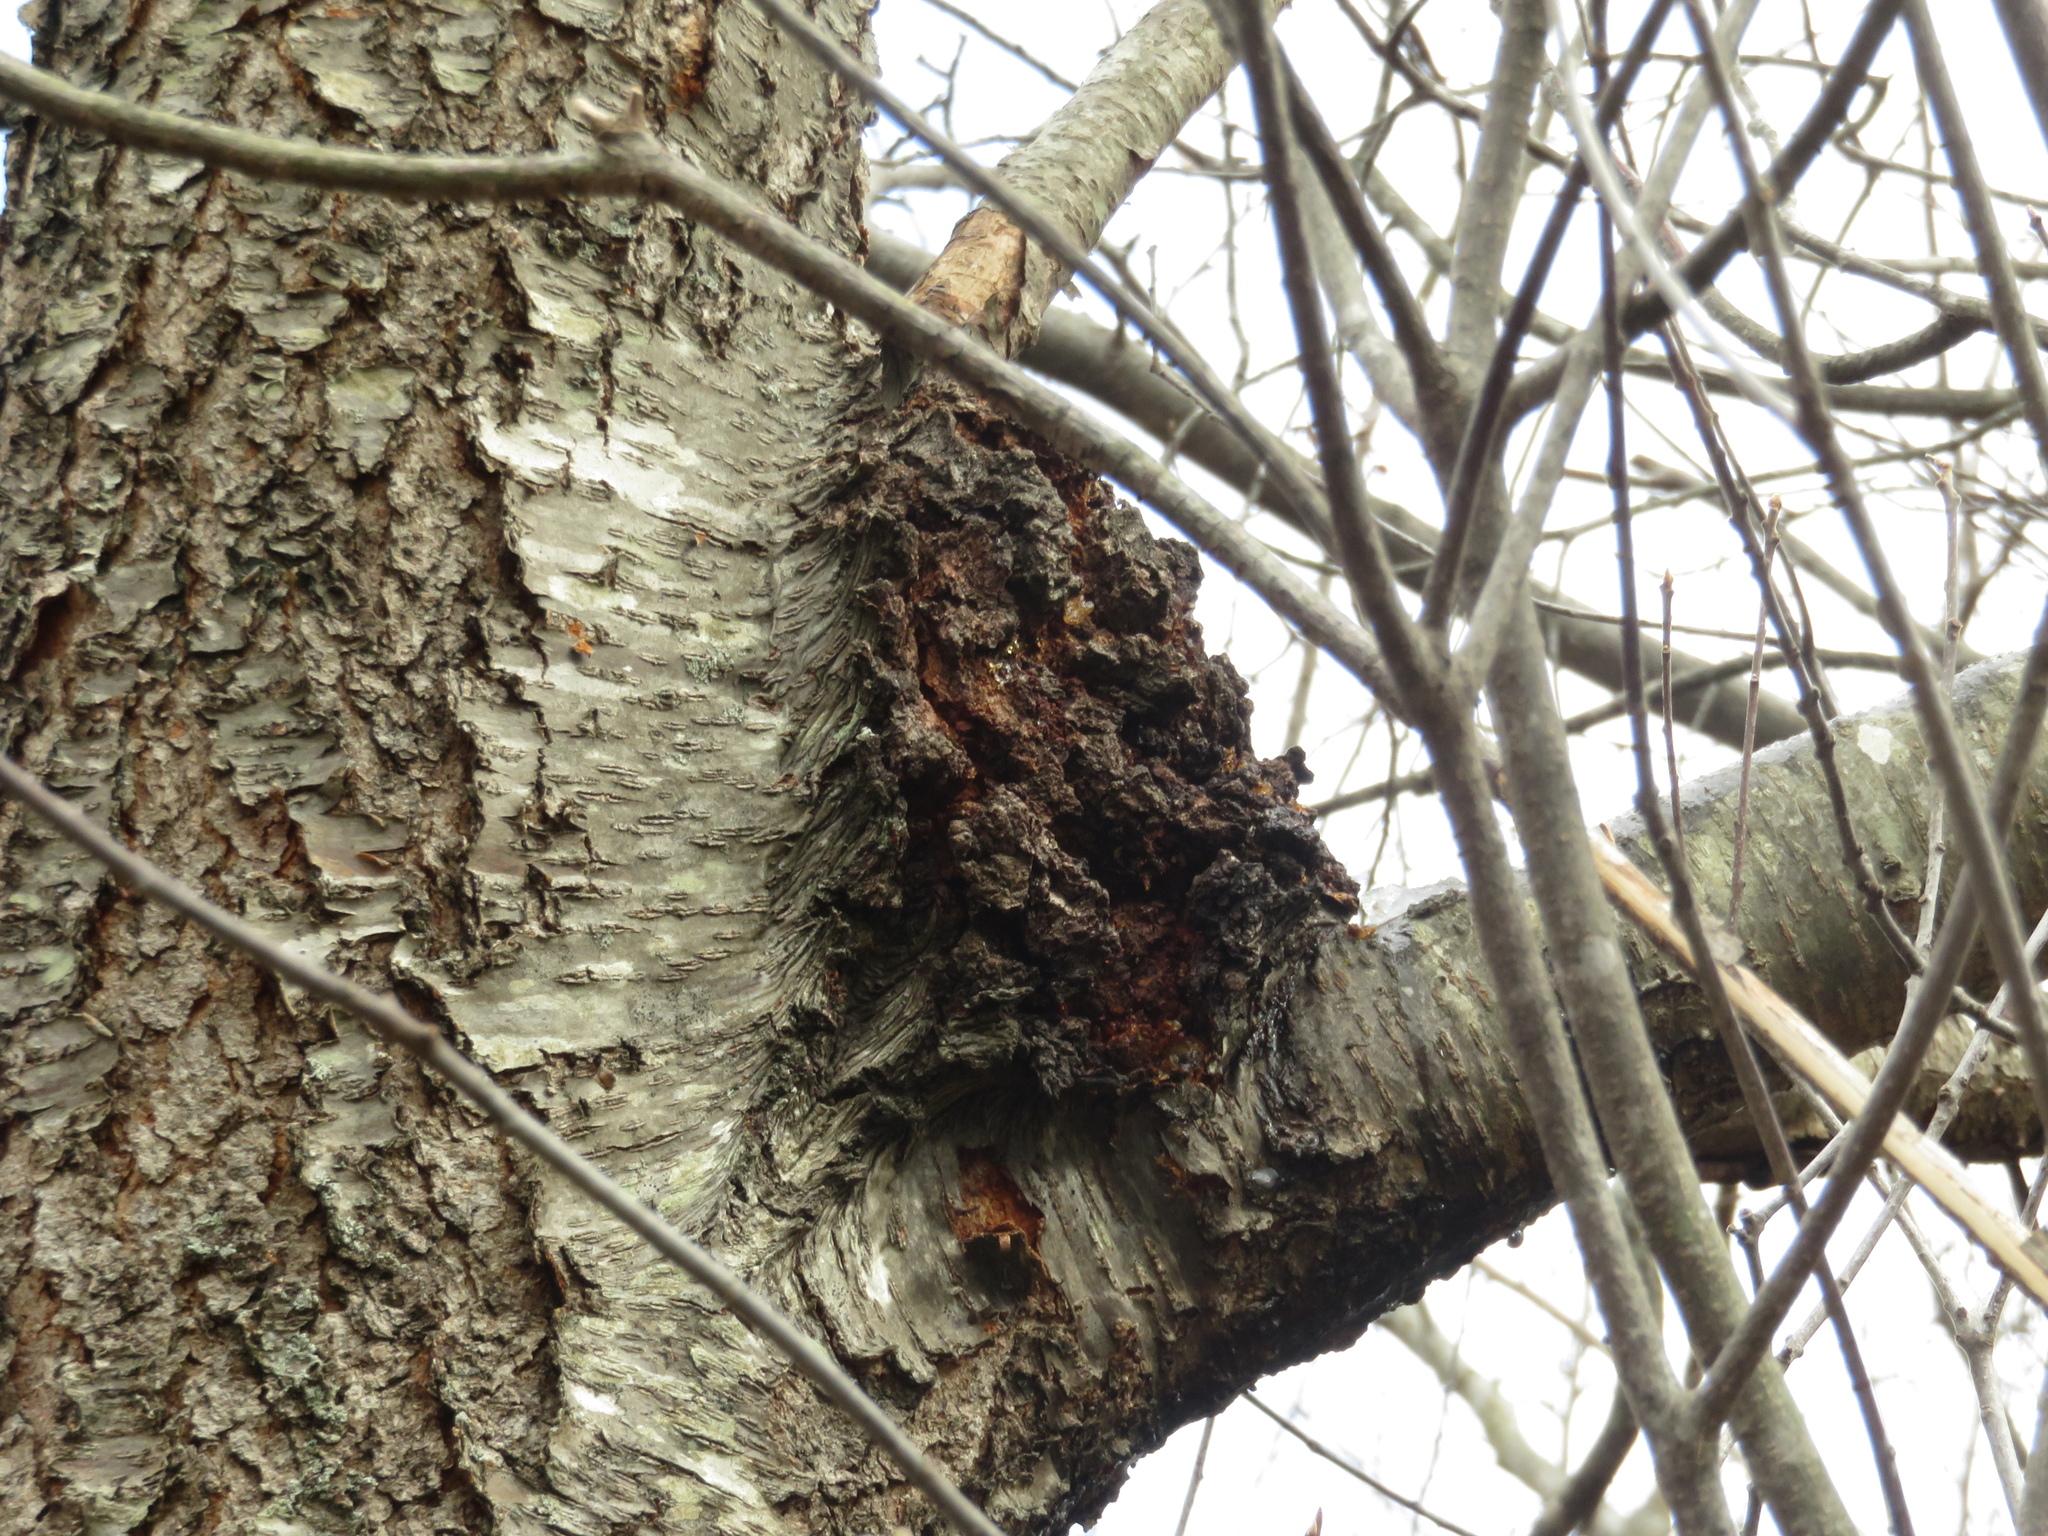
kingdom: Fungi
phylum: Ascomycota
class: Dothideomycetes
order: Venturiales
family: Venturiaceae
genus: Apiosporina
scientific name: Apiosporina morbosa
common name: Black knot
